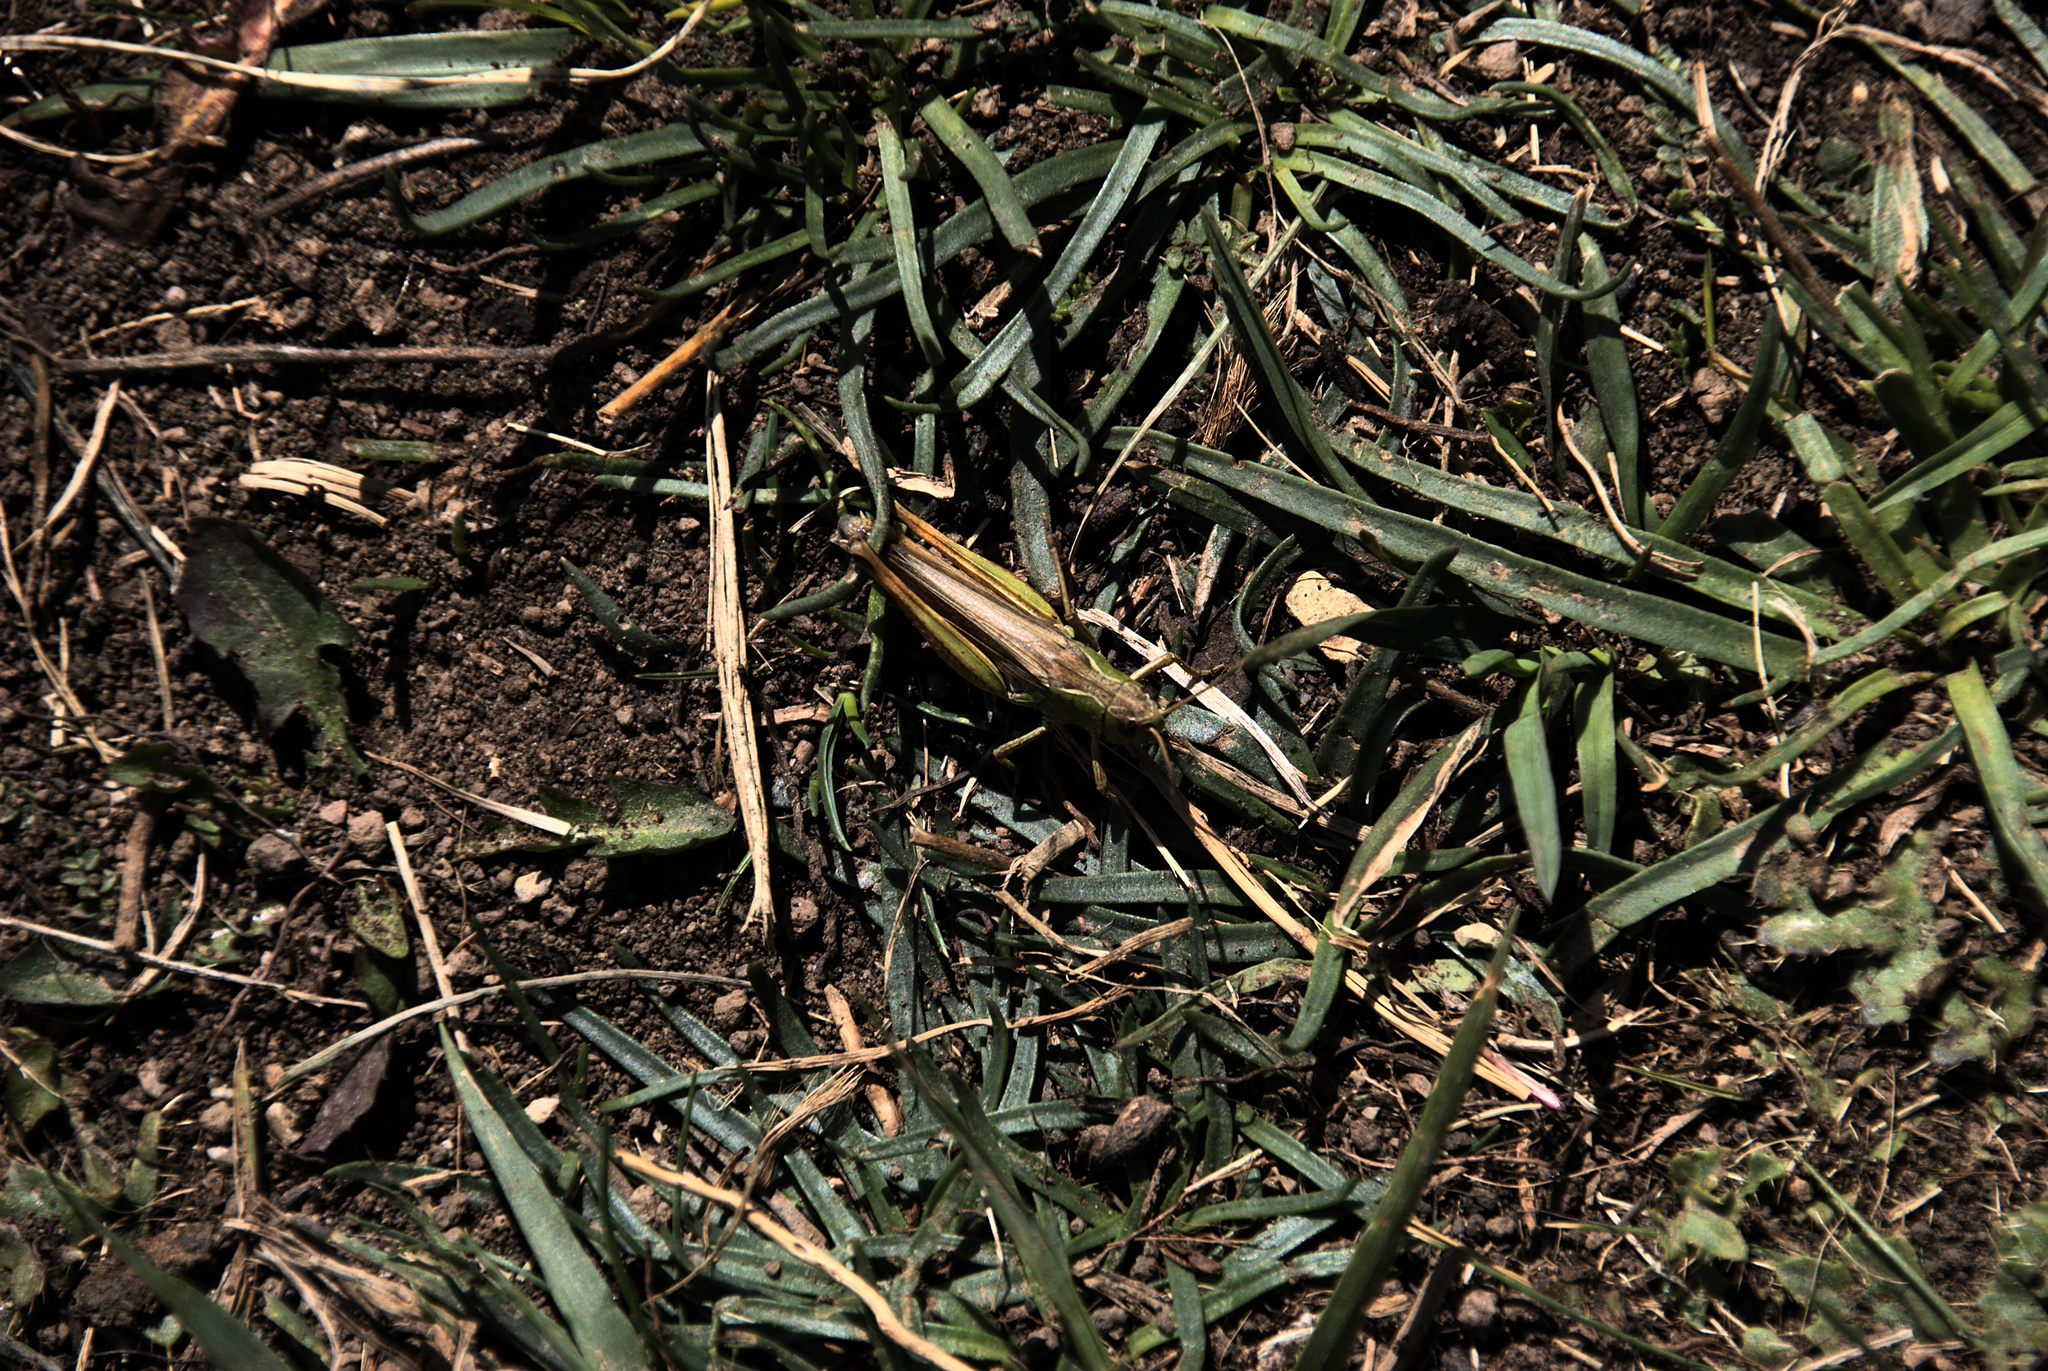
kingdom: Animalia
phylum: Arthropoda
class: Insecta
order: Orthoptera
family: Acrididae
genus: Stauroderus
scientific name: Stauroderus scalaris
